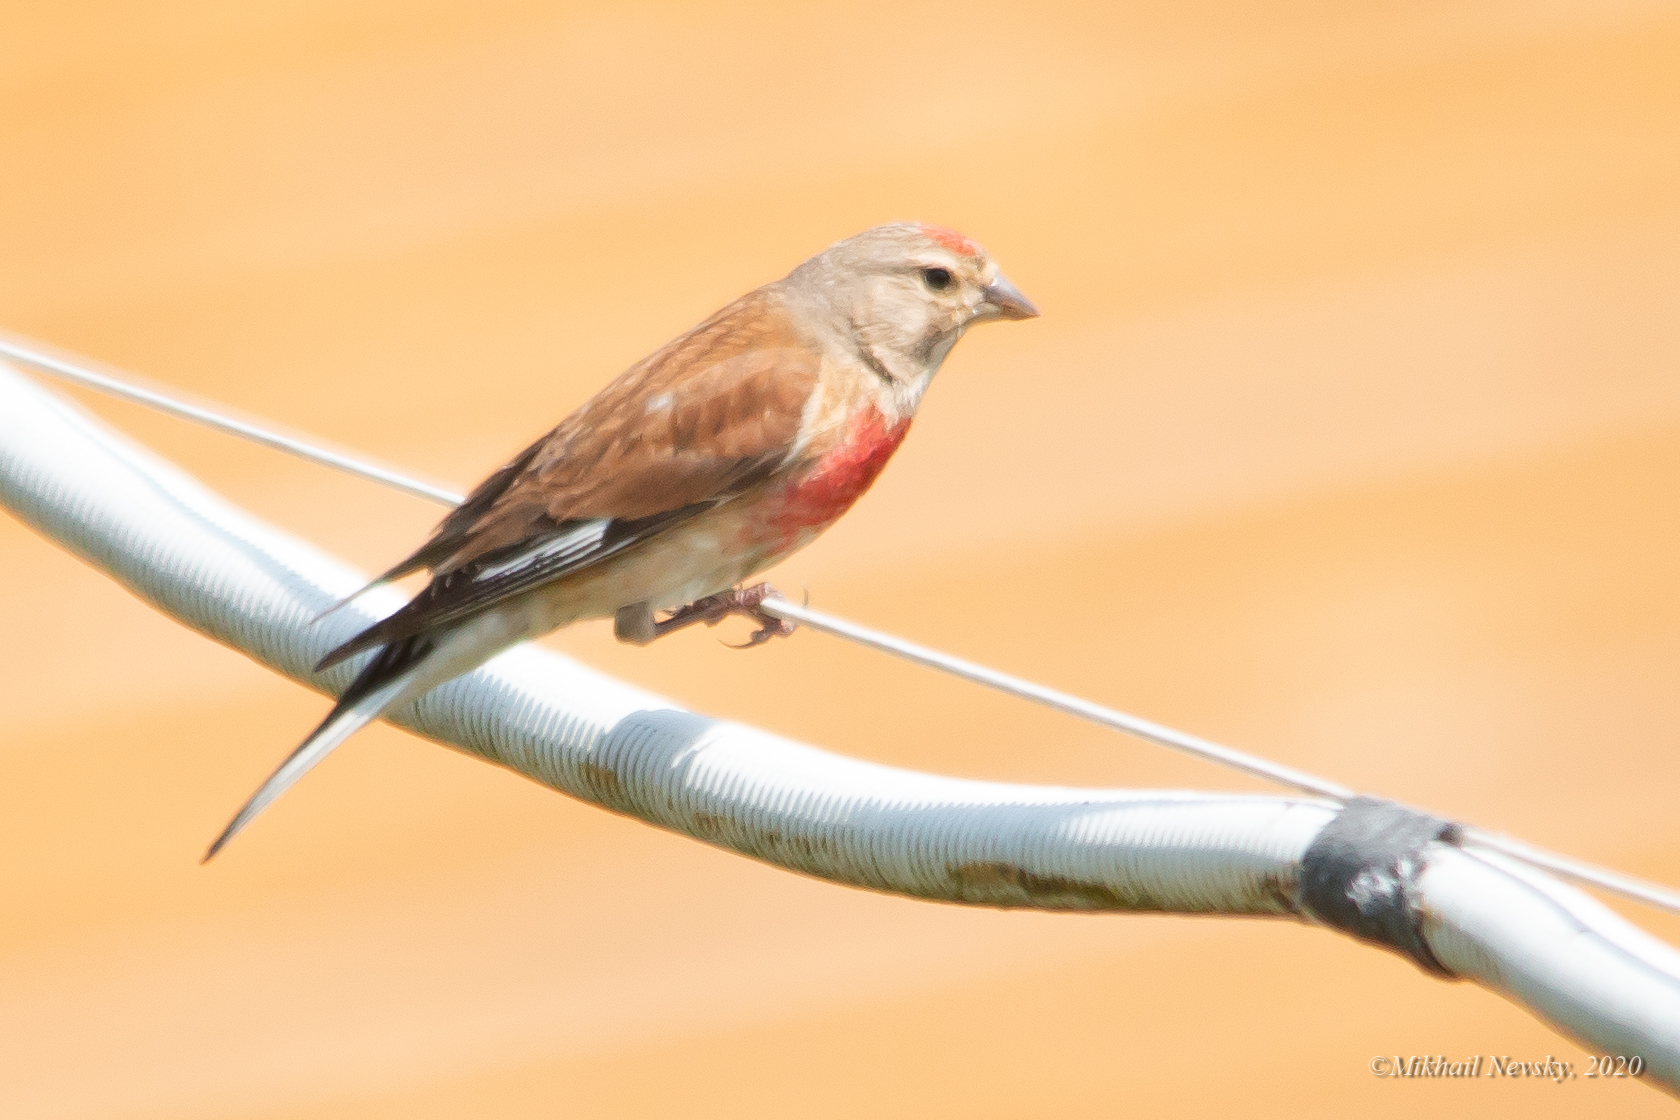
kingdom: Animalia
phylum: Chordata
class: Aves
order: Passeriformes
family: Fringillidae
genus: Linaria
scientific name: Linaria cannabina
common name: Common linnet
